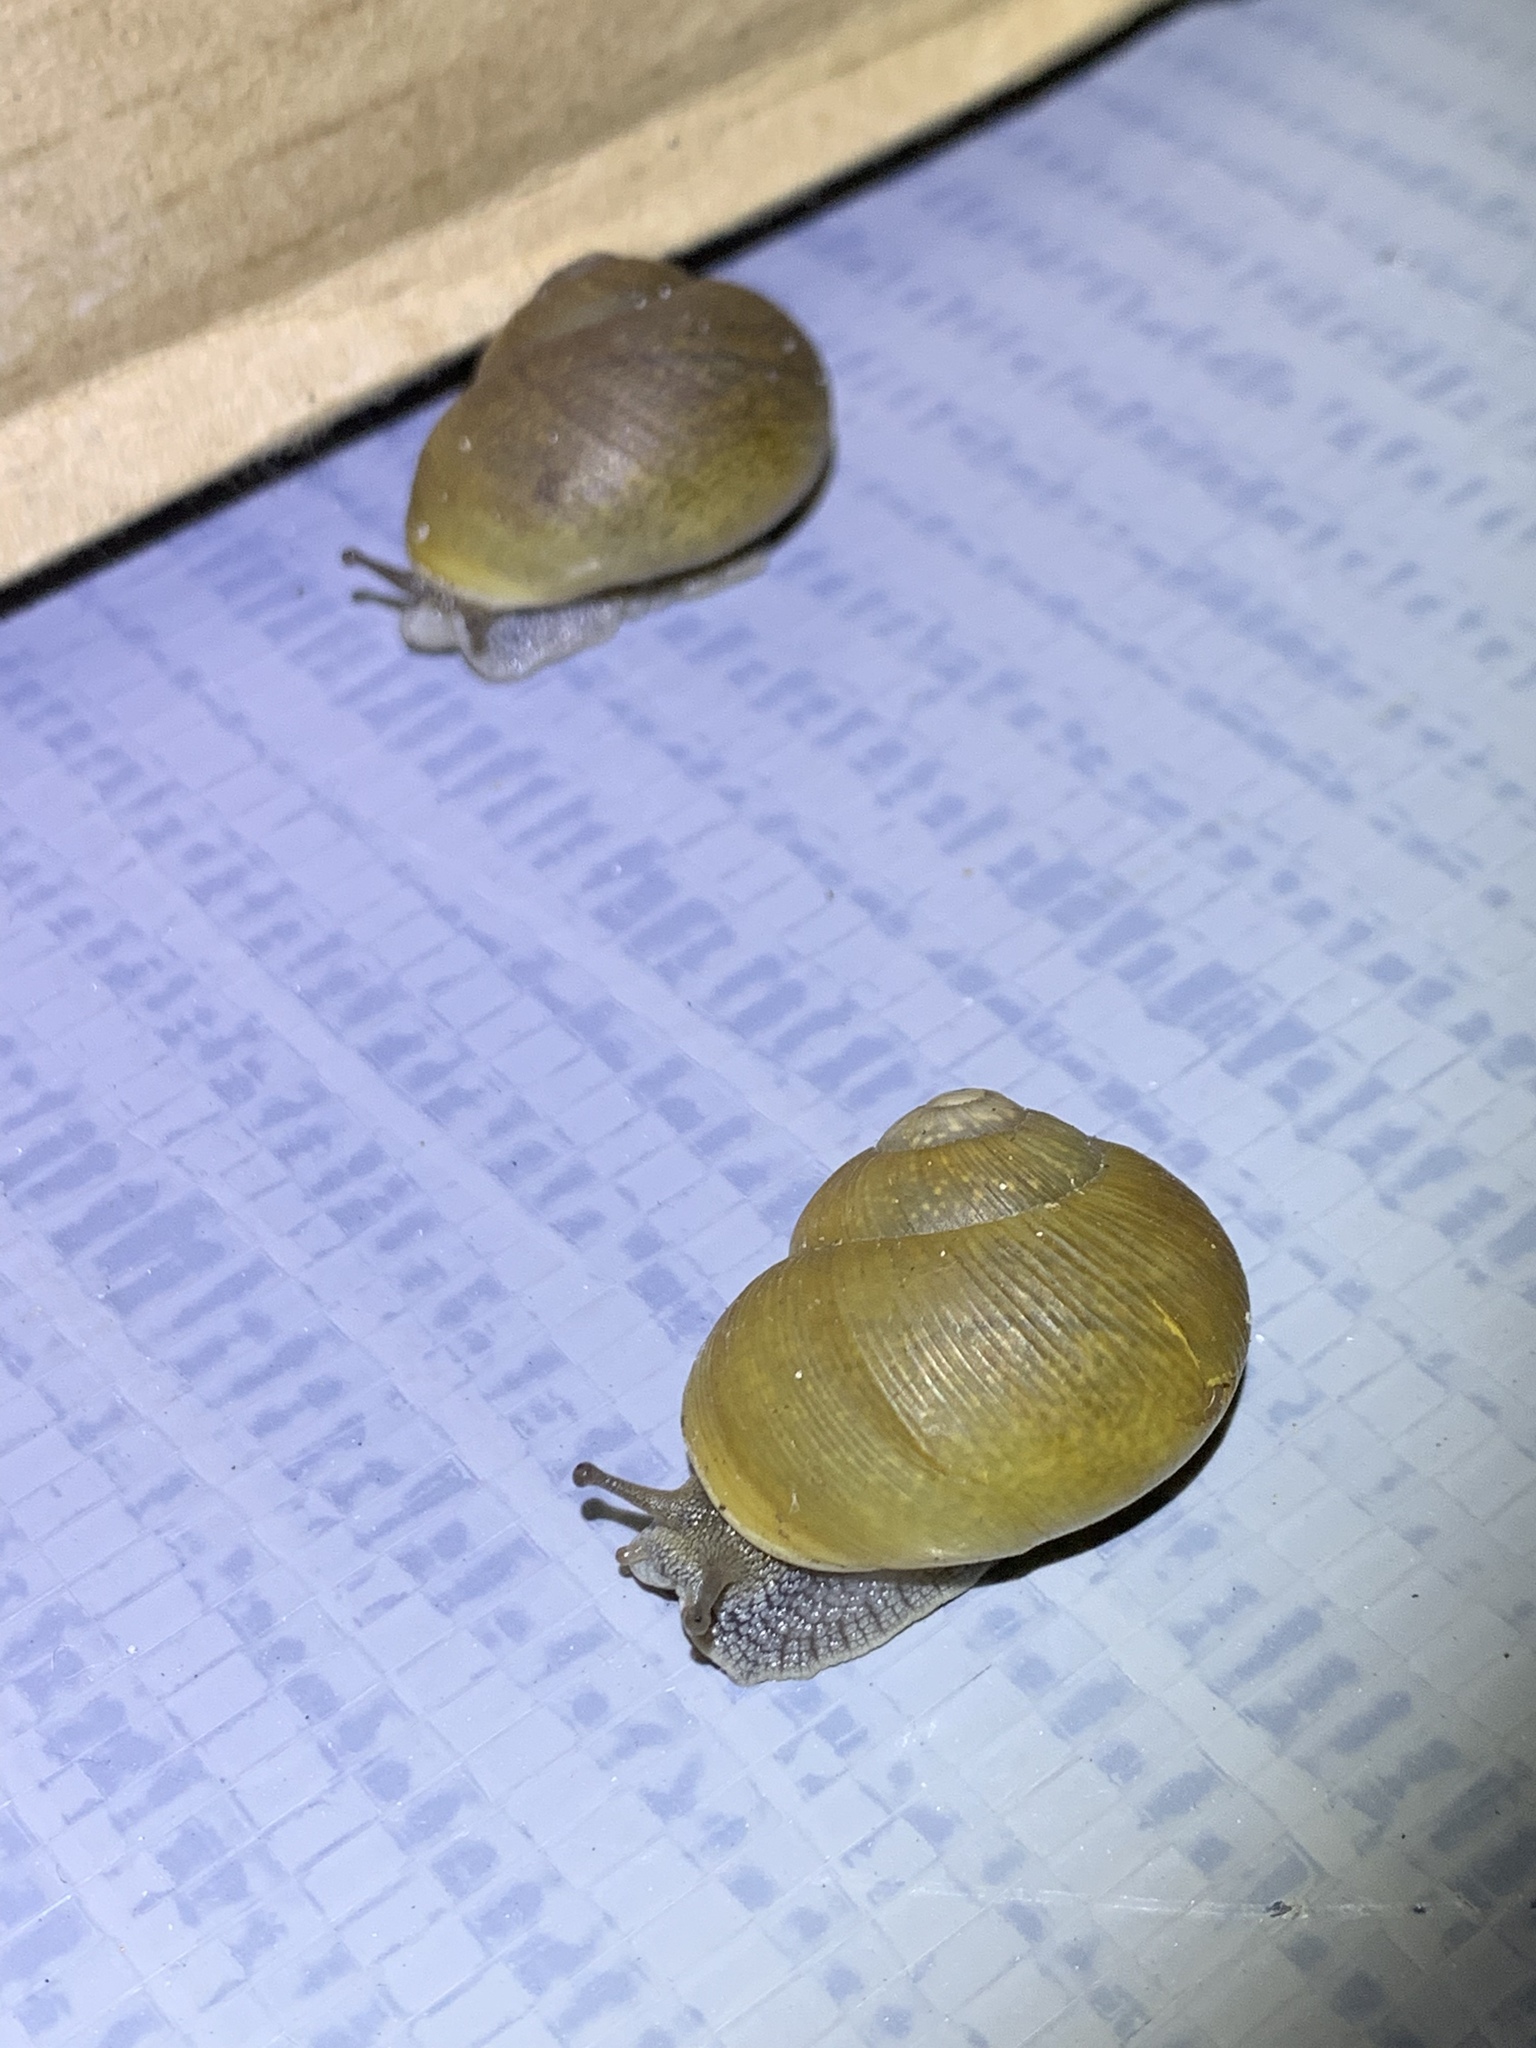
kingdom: Animalia
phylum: Mollusca
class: Gastropoda
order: Stylommatophora
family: Zachrysiidae
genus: Zachrysia
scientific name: Zachrysia provisoria
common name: Garden zachrysia
